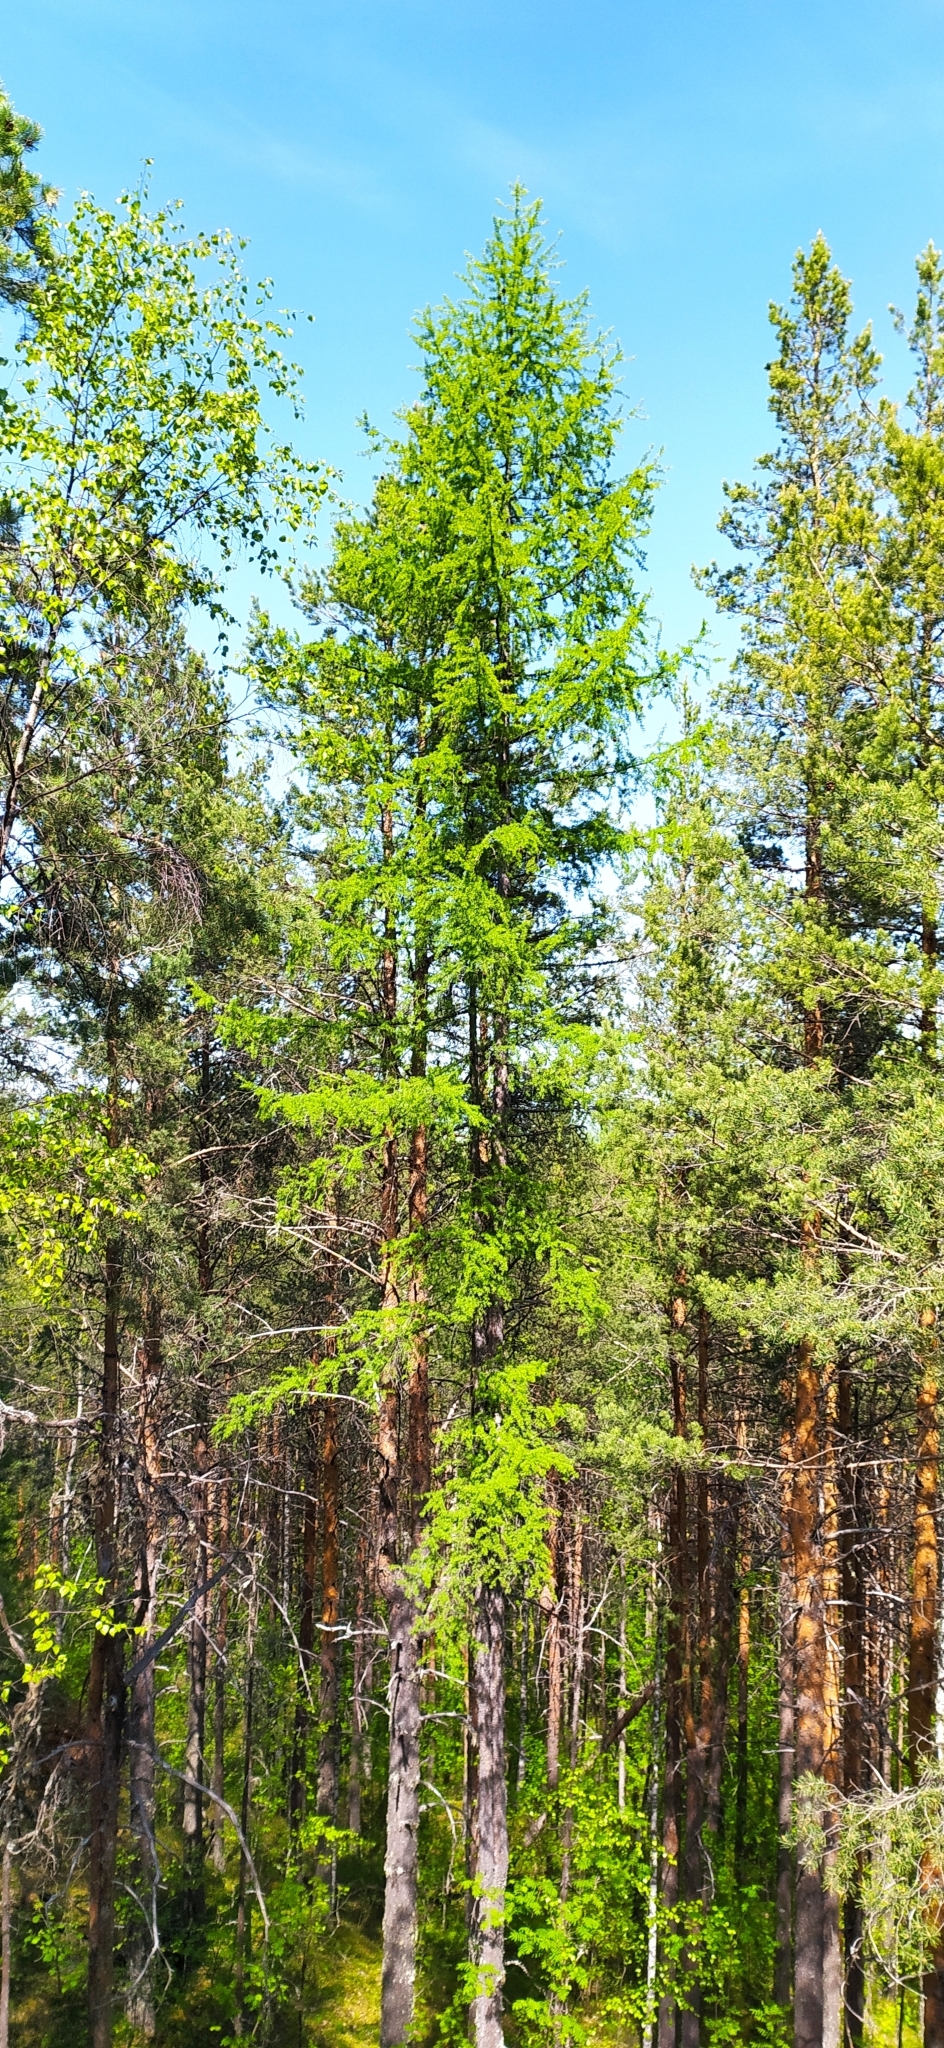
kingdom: Plantae
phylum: Tracheophyta
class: Pinopsida
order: Pinales
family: Pinaceae
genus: Larix
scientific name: Larix sibirica
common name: Siberian larch
